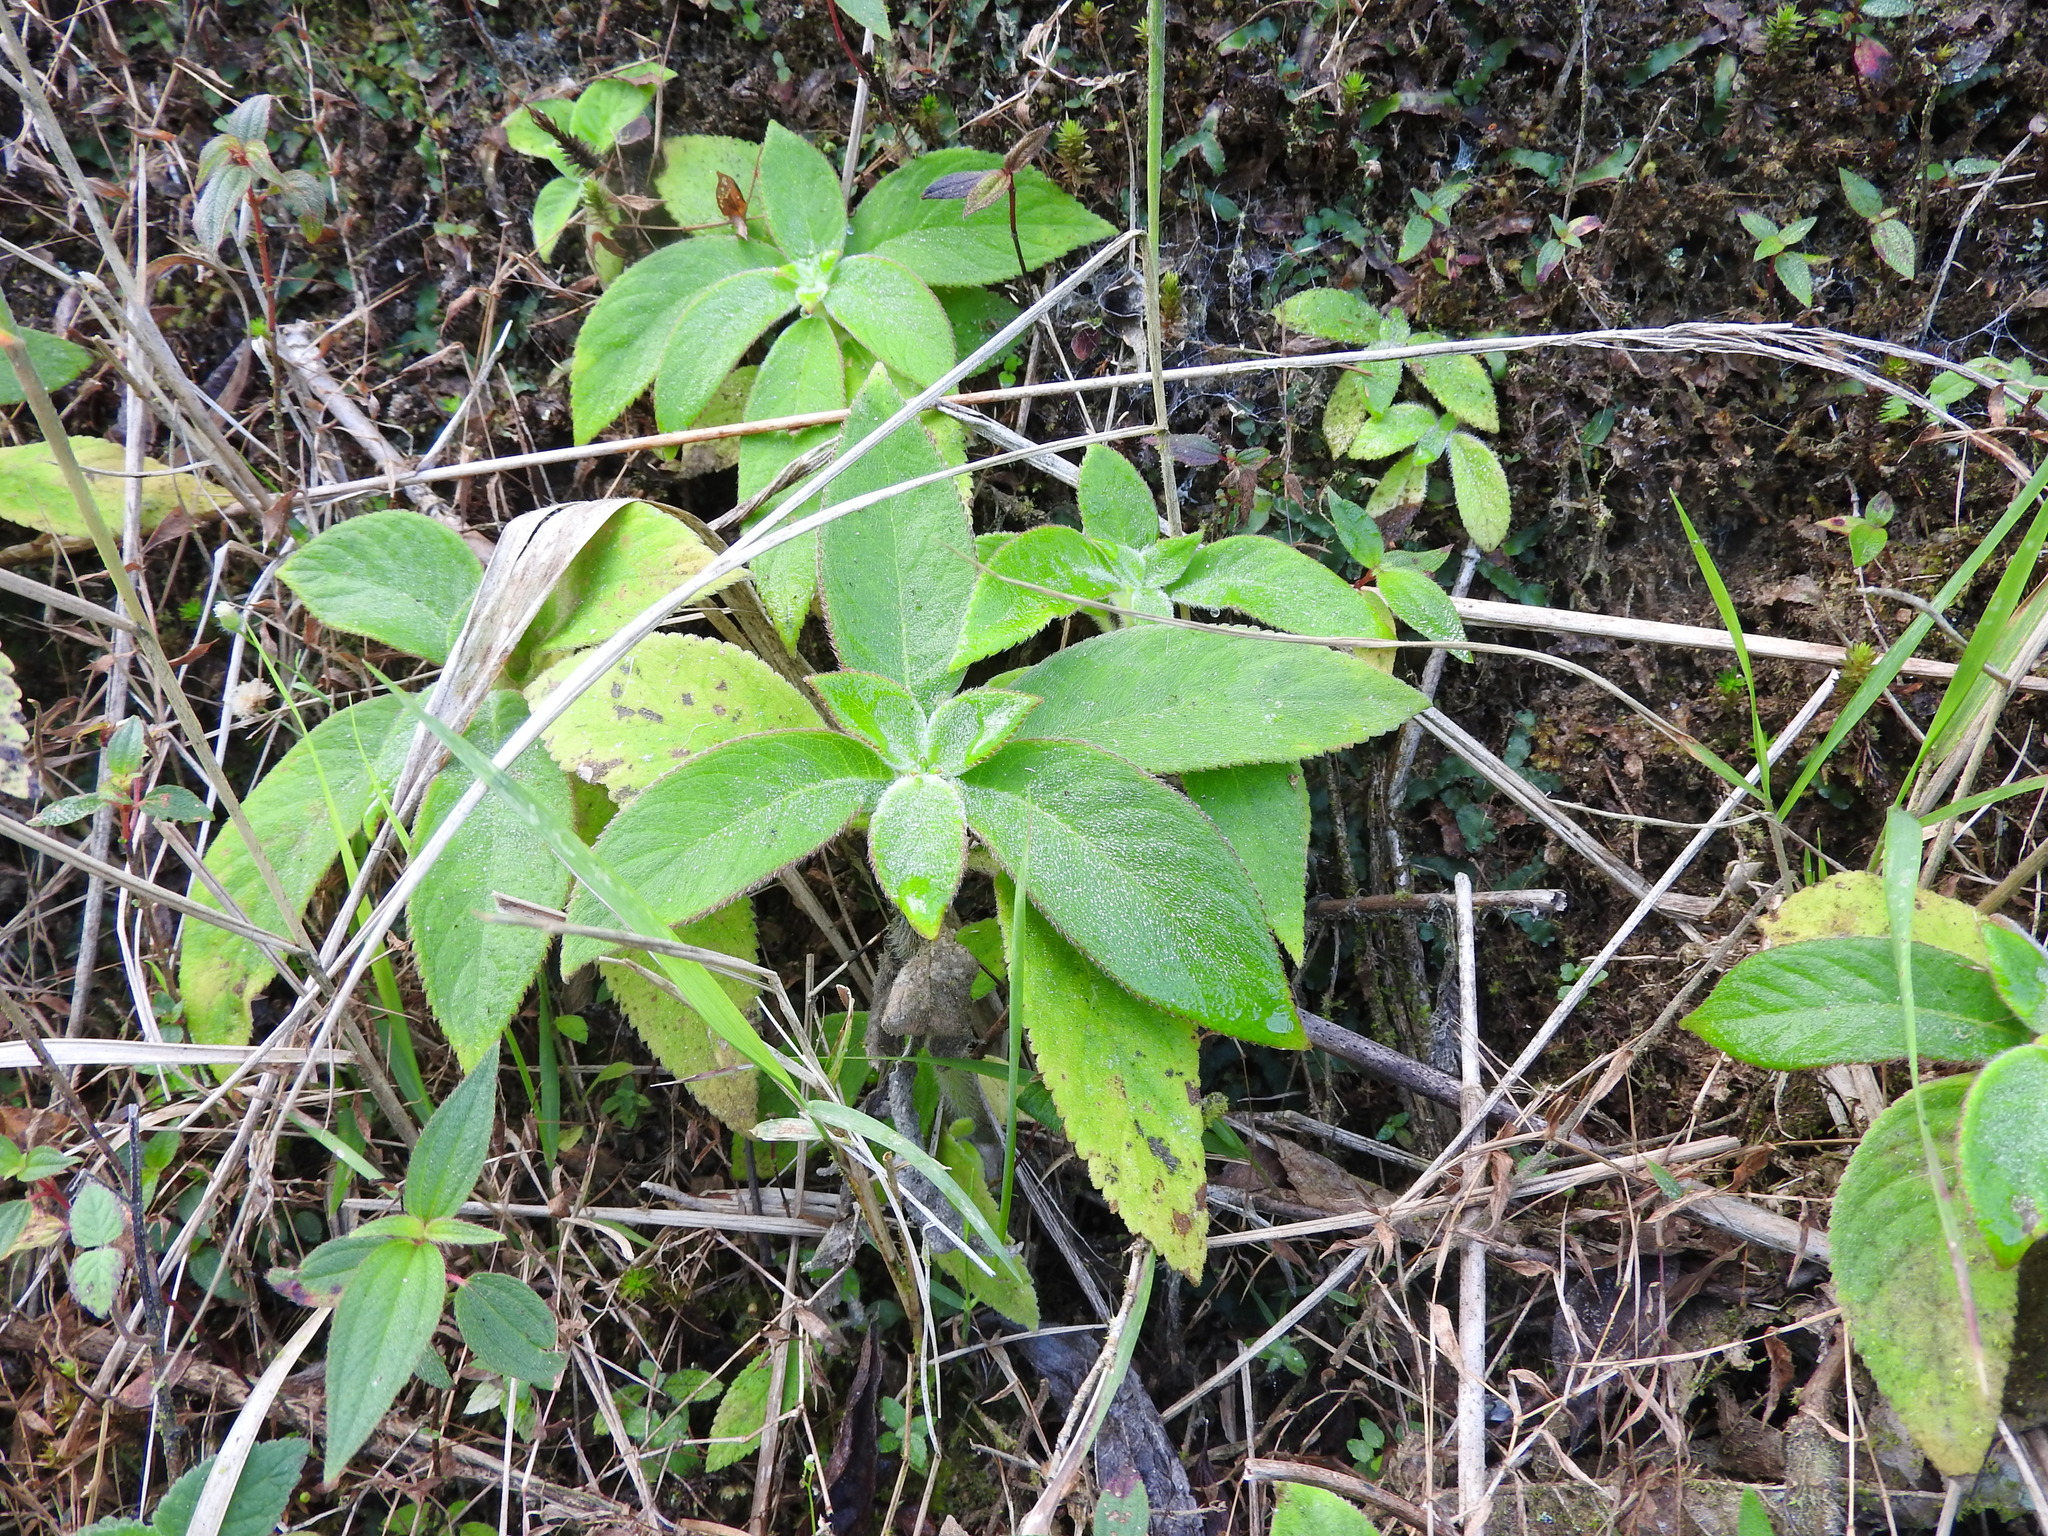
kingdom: Plantae
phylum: Tracheophyta
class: Magnoliopsida
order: Lamiales
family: Gesneriaceae
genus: Kohleria
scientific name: Kohleria spicata
